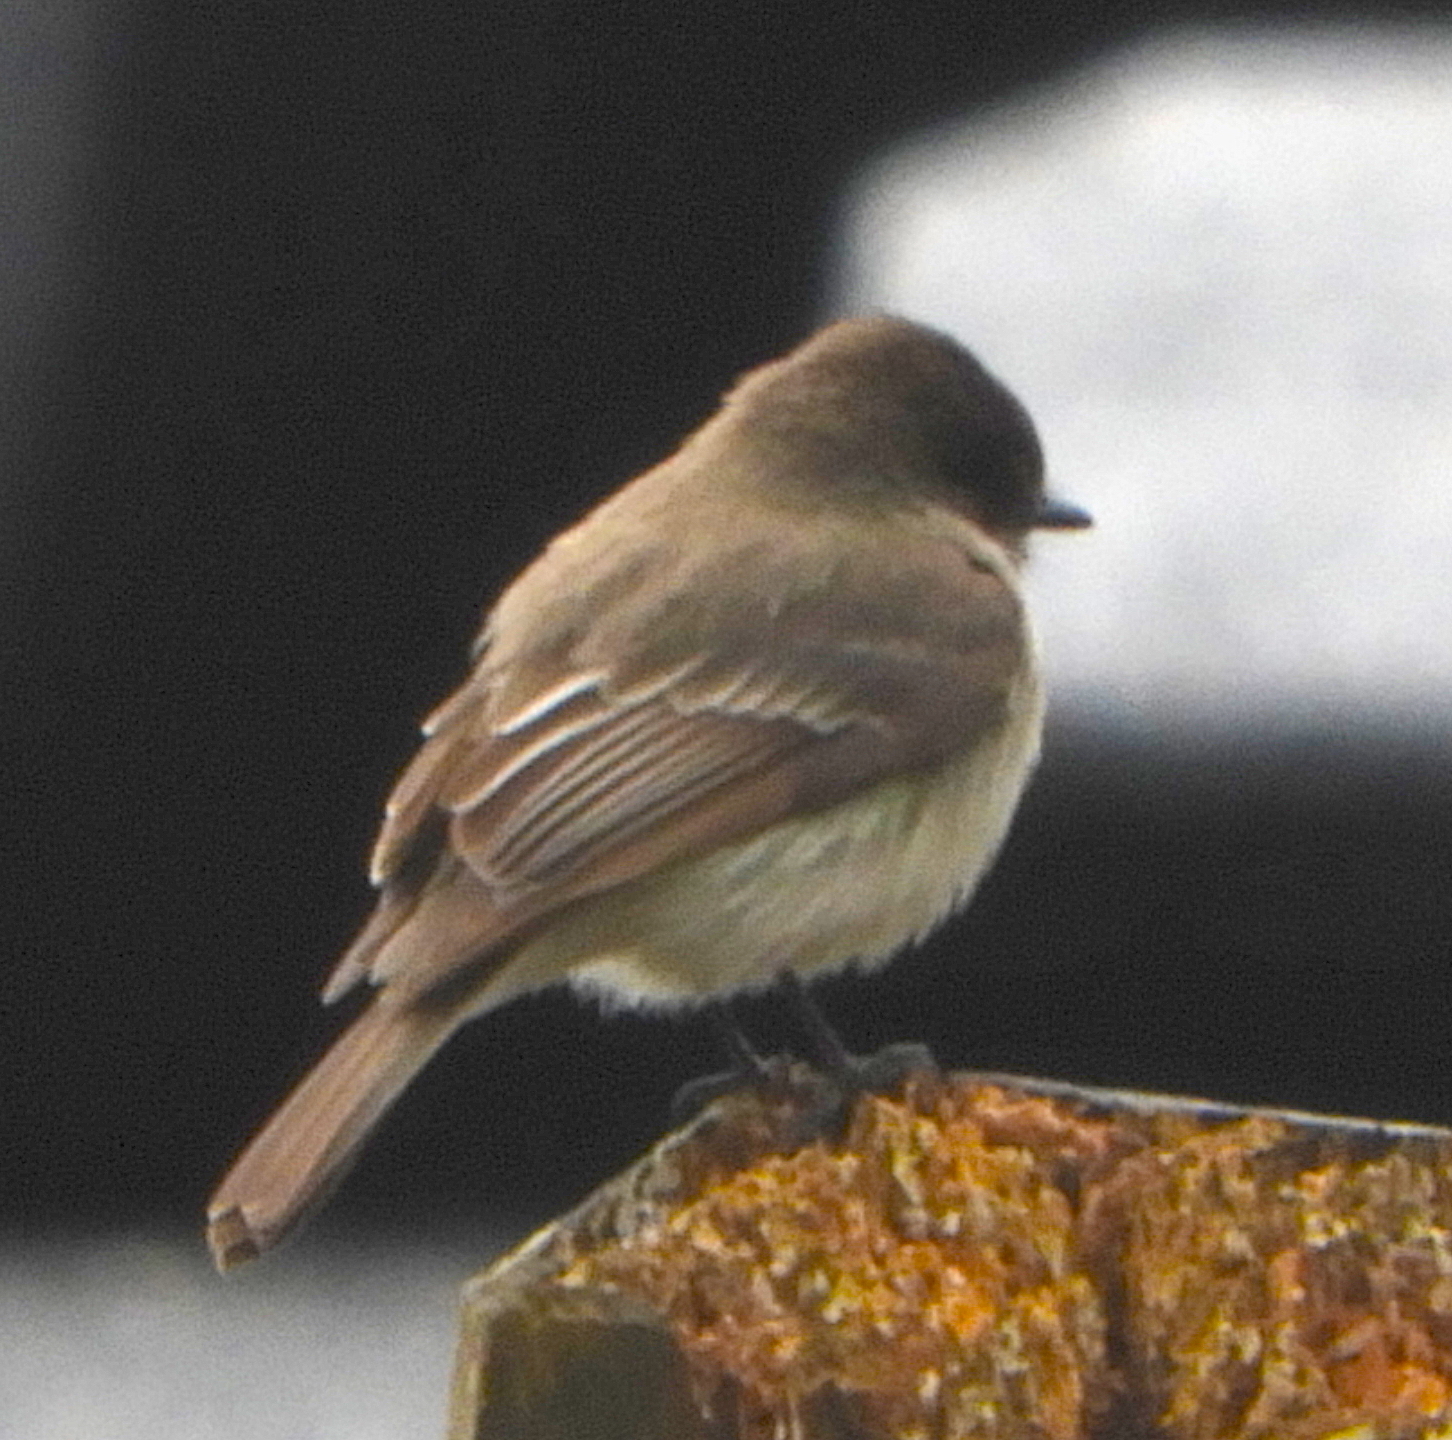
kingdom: Animalia
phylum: Chordata
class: Aves
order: Passeriformes
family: Tyrannidae
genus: Sayornis
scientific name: Sayornis phoebe
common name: Eastern phoebe
